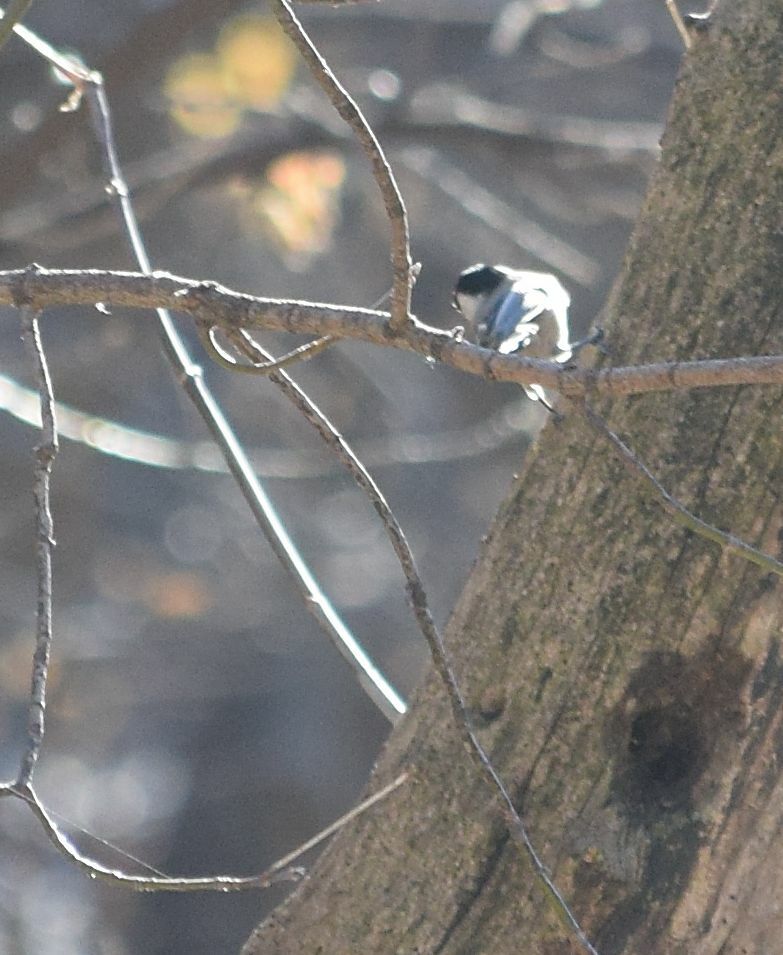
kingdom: Animalia
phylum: Chordata
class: Aves
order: Passeriformes
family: Paridae
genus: Poecile
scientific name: Poecile atricapillus
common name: Black-capped chickadee
